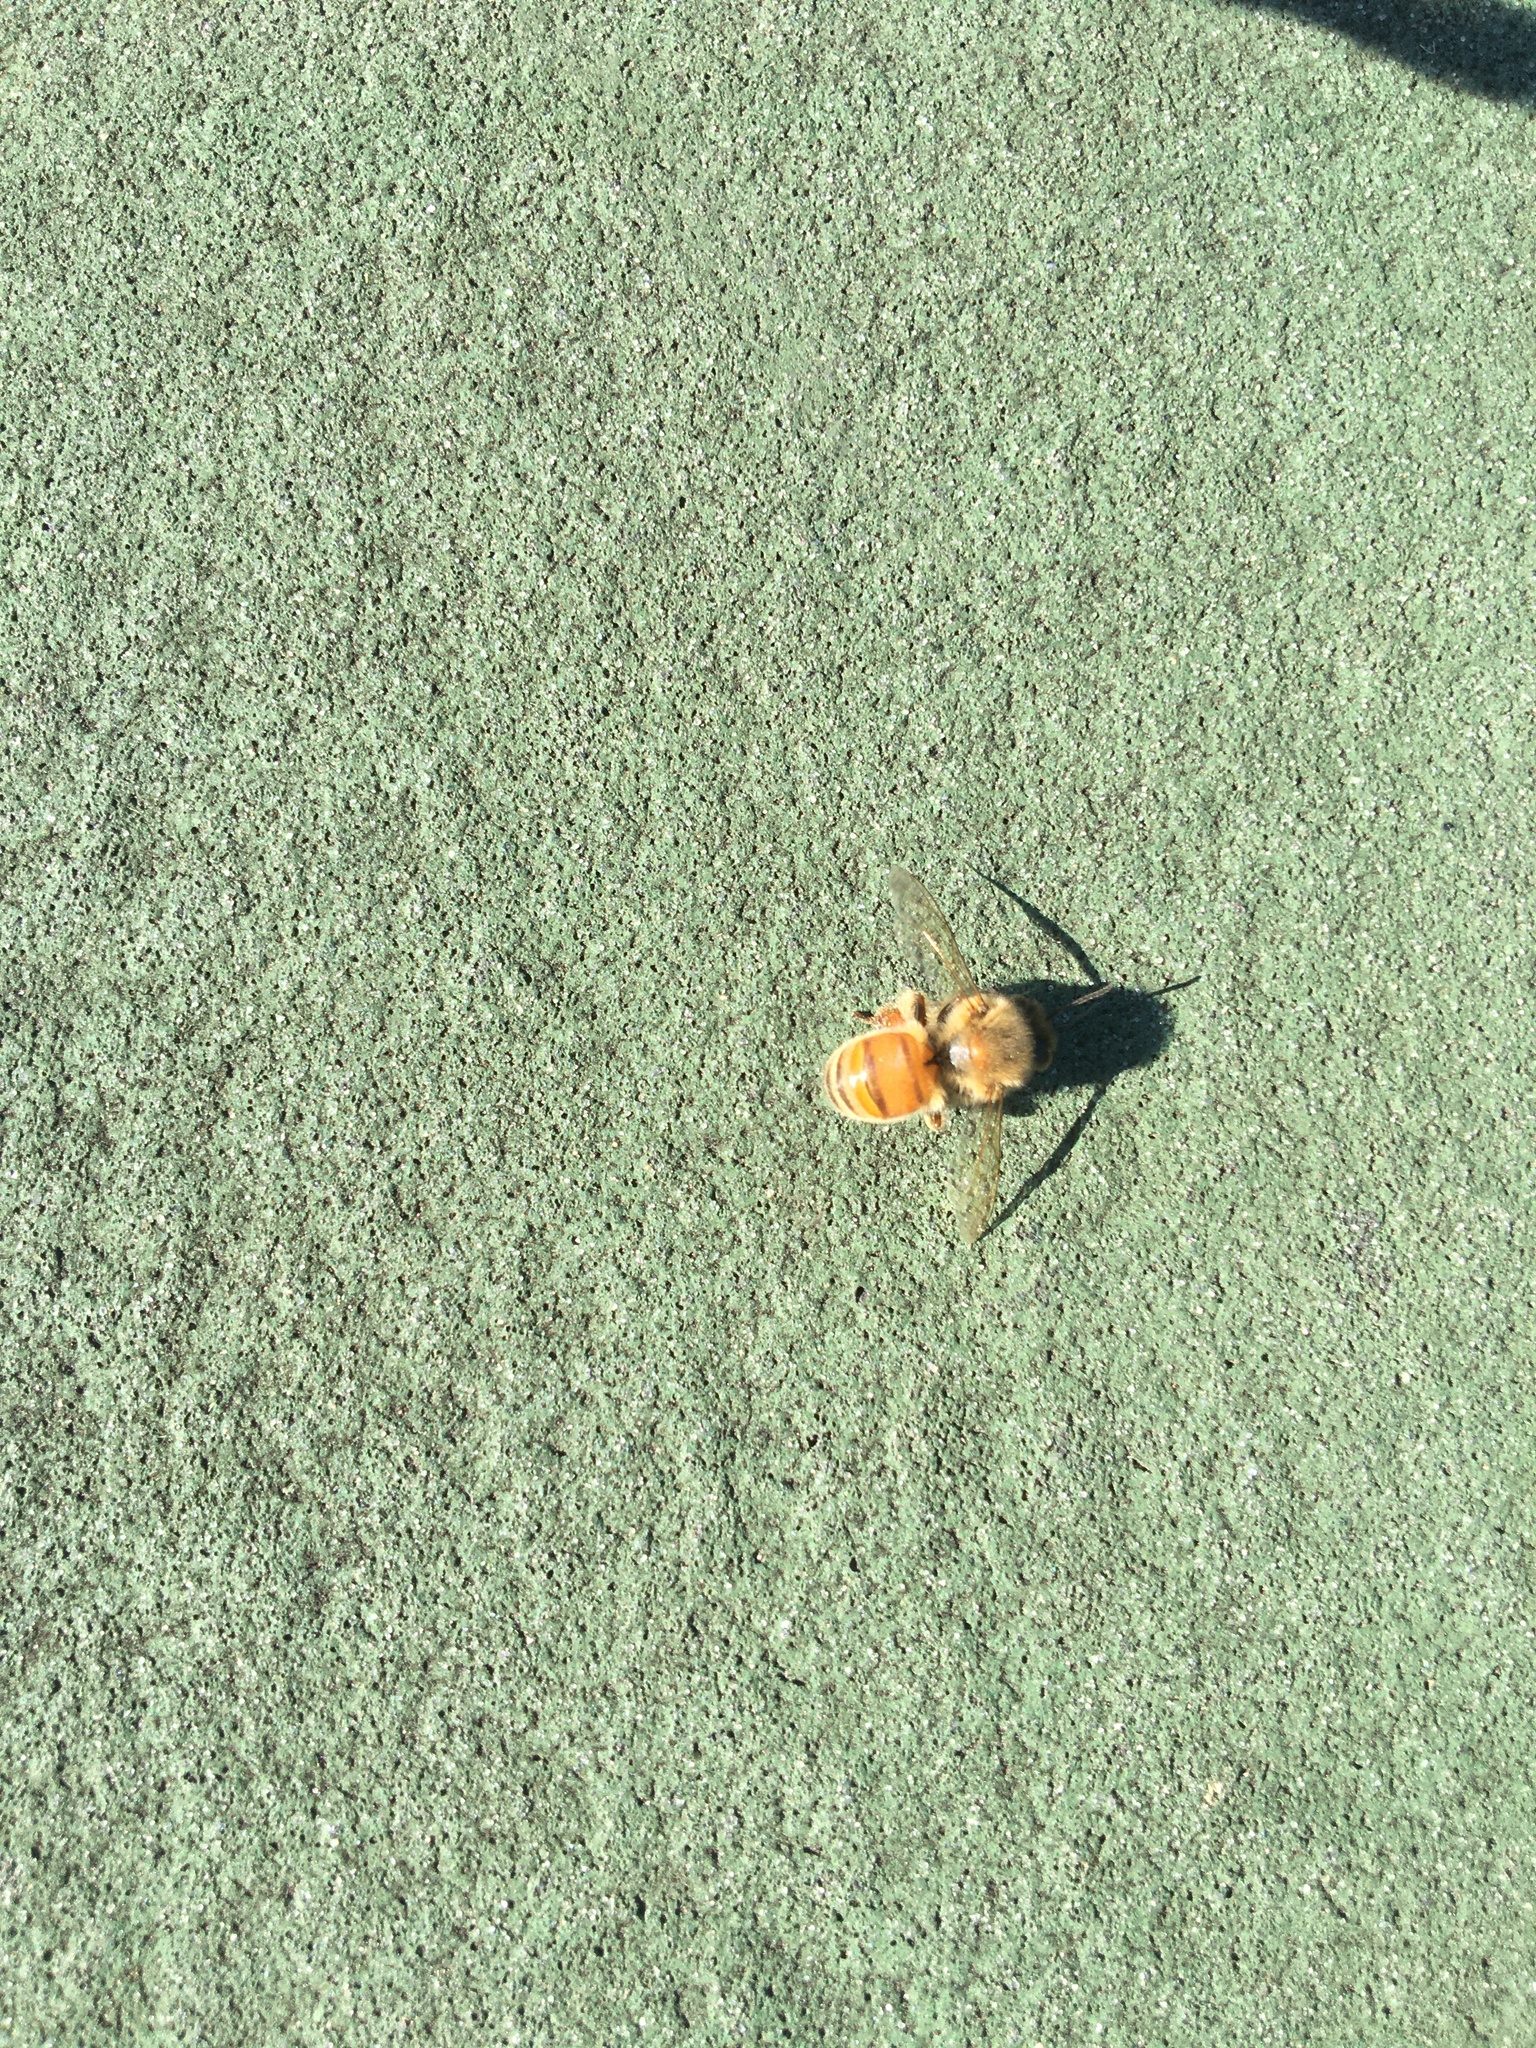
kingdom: Animalia
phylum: Arthropoda
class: Insecta
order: Hymenoptera
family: Apidae
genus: Apis
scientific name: Apis mellifera
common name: Honey bee
